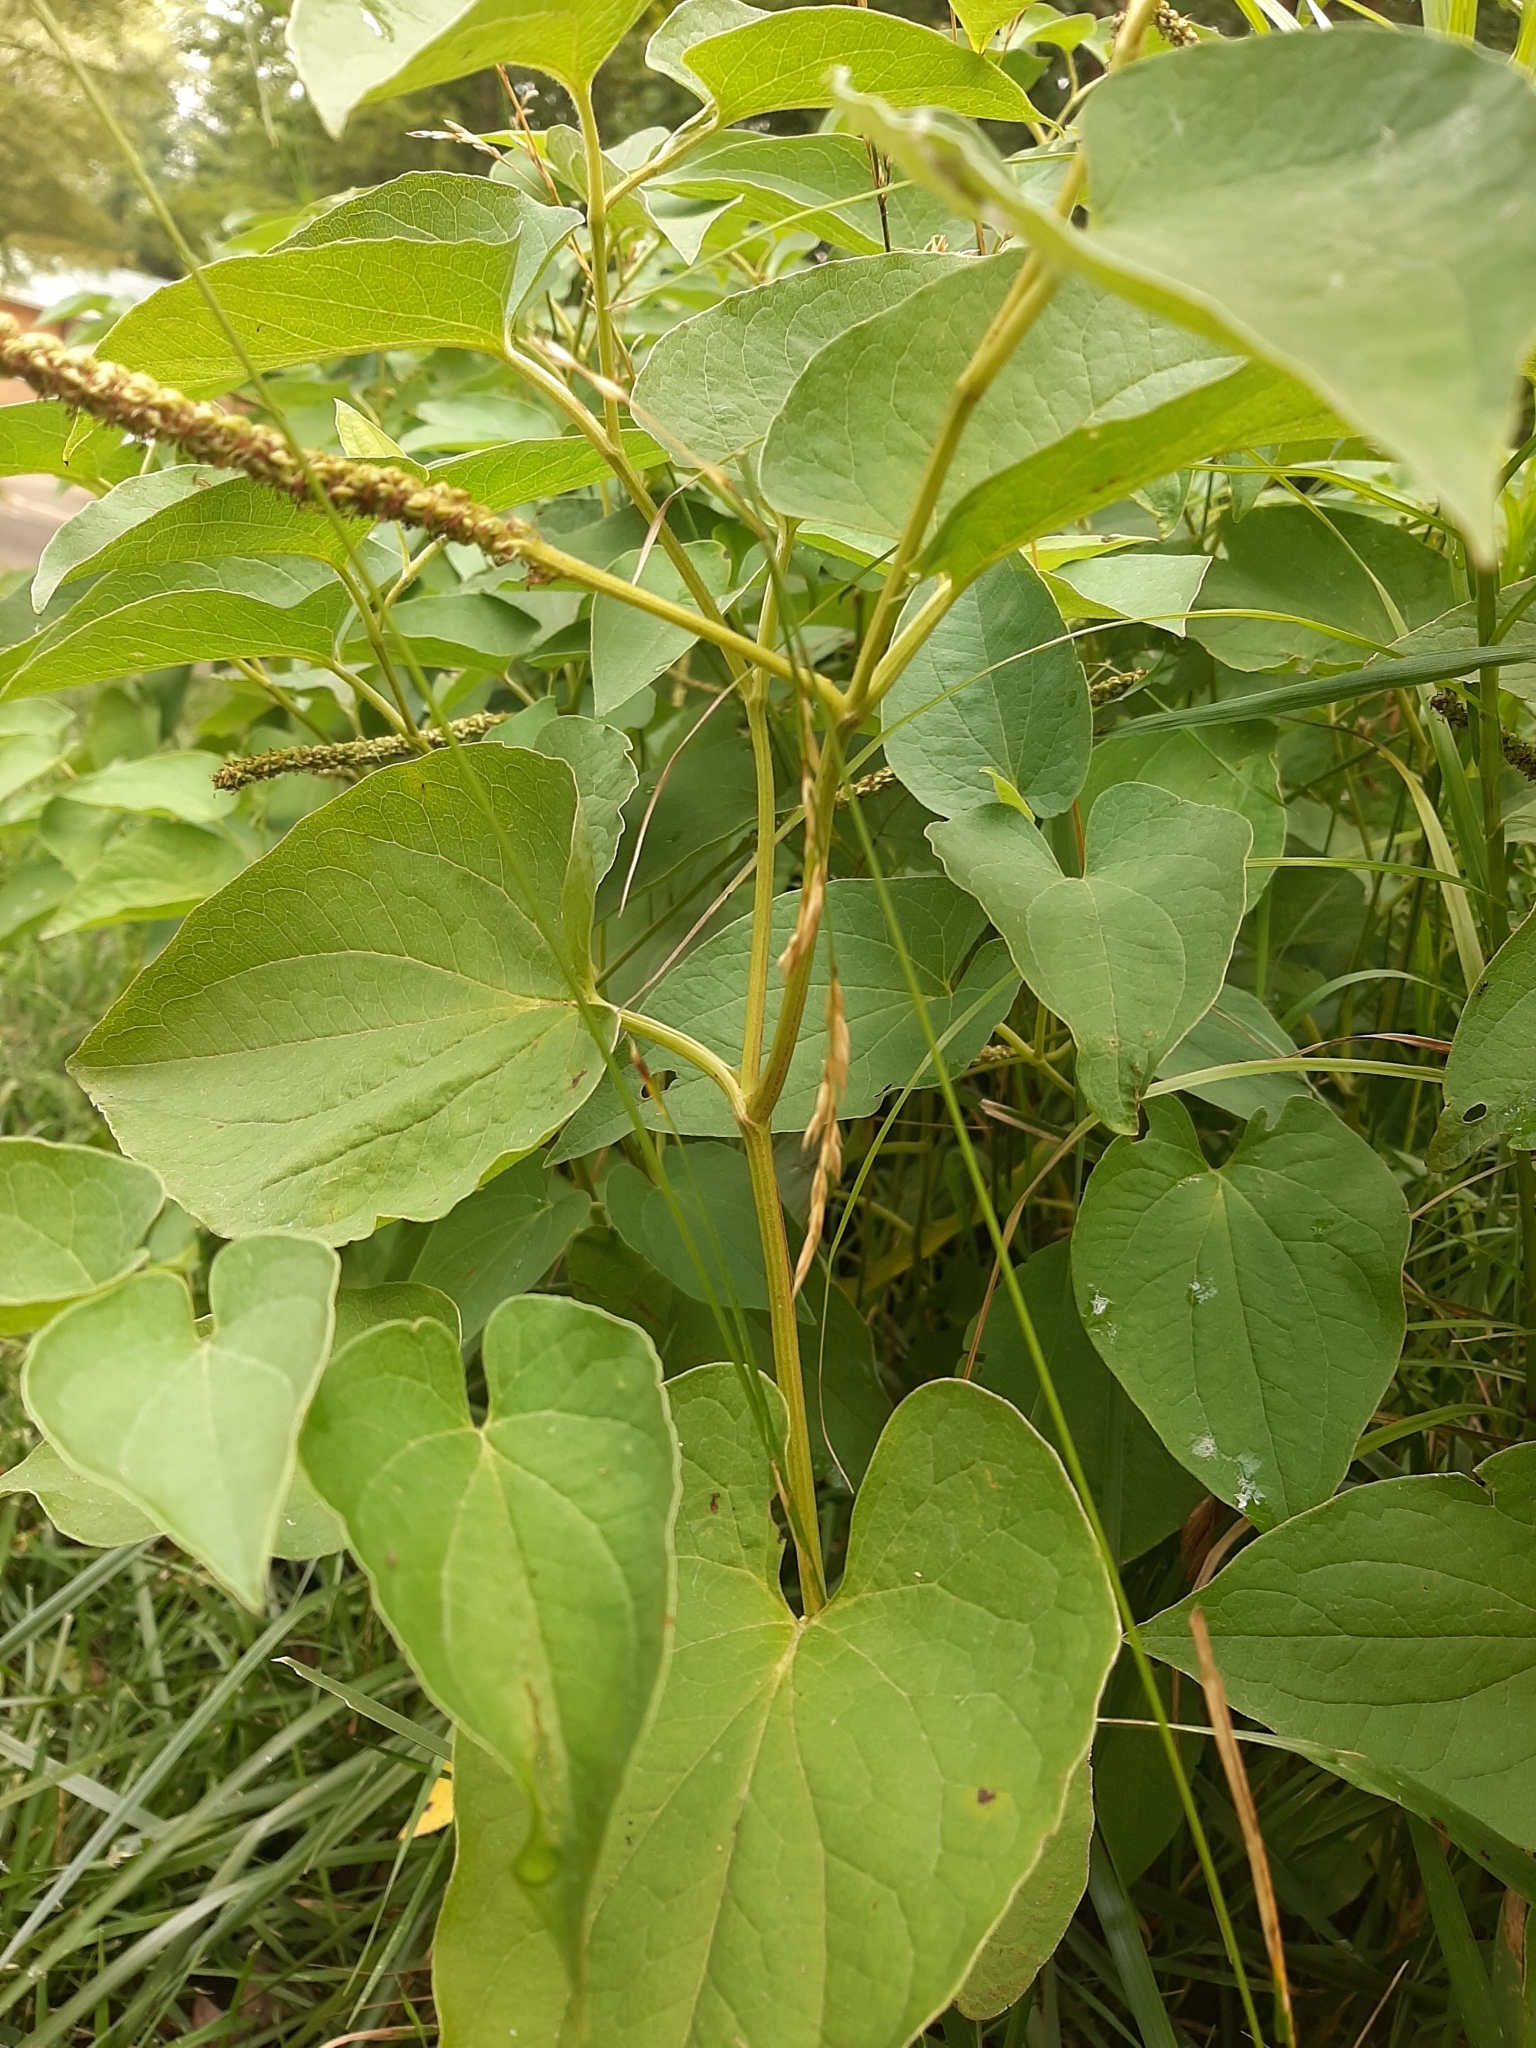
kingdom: Plantae
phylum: Tracheophyta
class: Magnoliopsida
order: Piperales
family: Saururaceae
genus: Saururus
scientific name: Saururus cernuus
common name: Lizard's-tail
